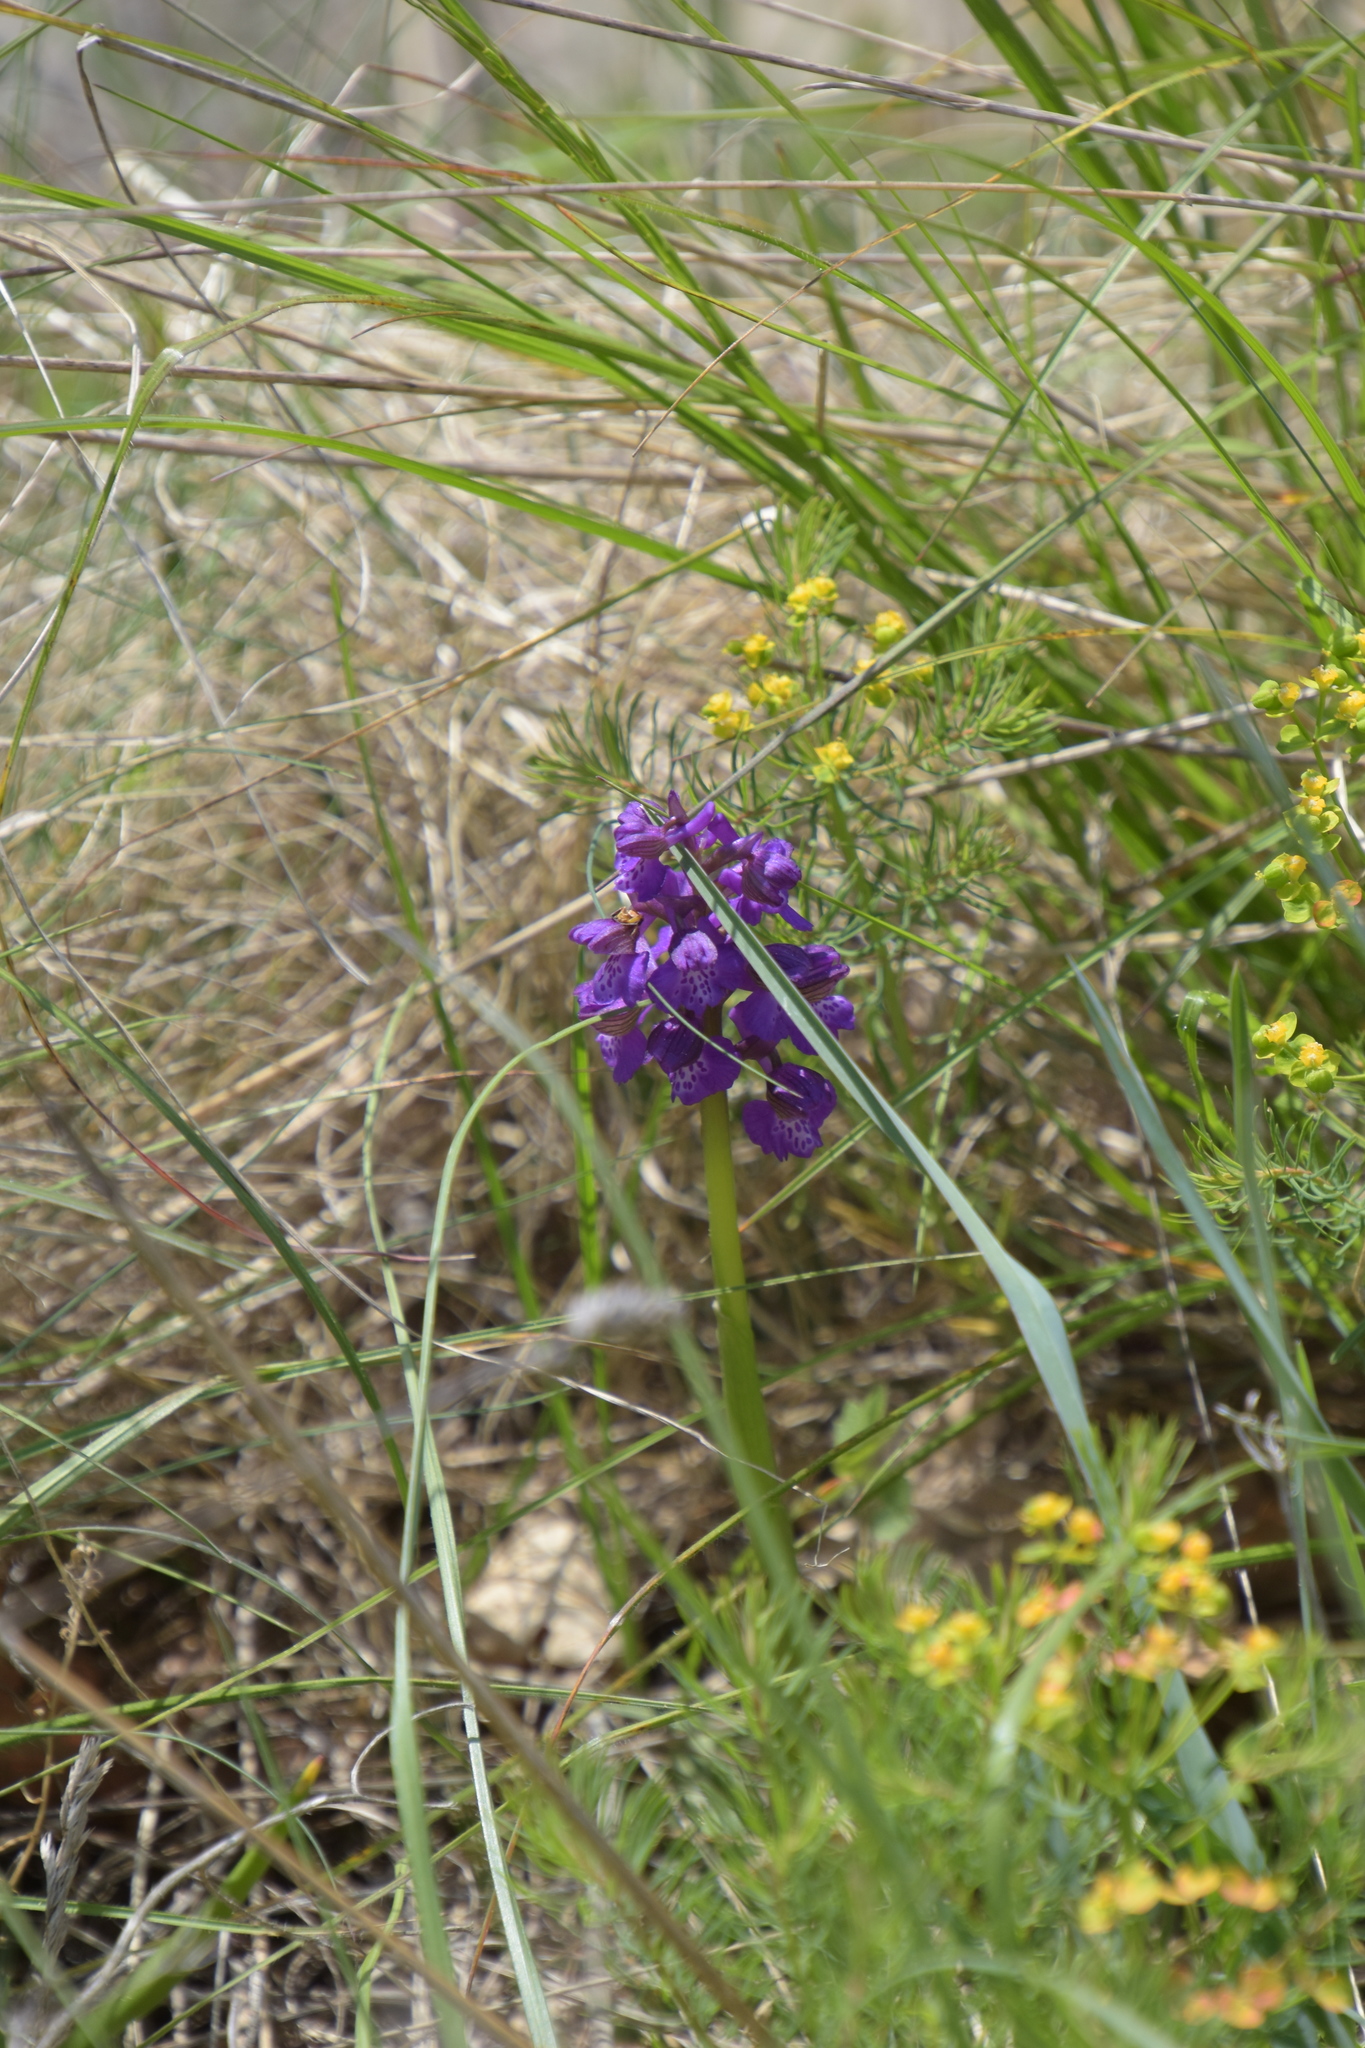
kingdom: Plantae
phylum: Tracheophyta
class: Liliopsida
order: Asparagales
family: Orchidaceae
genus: Anacamptis
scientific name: Anacamptis morio
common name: Green-winged orchid
